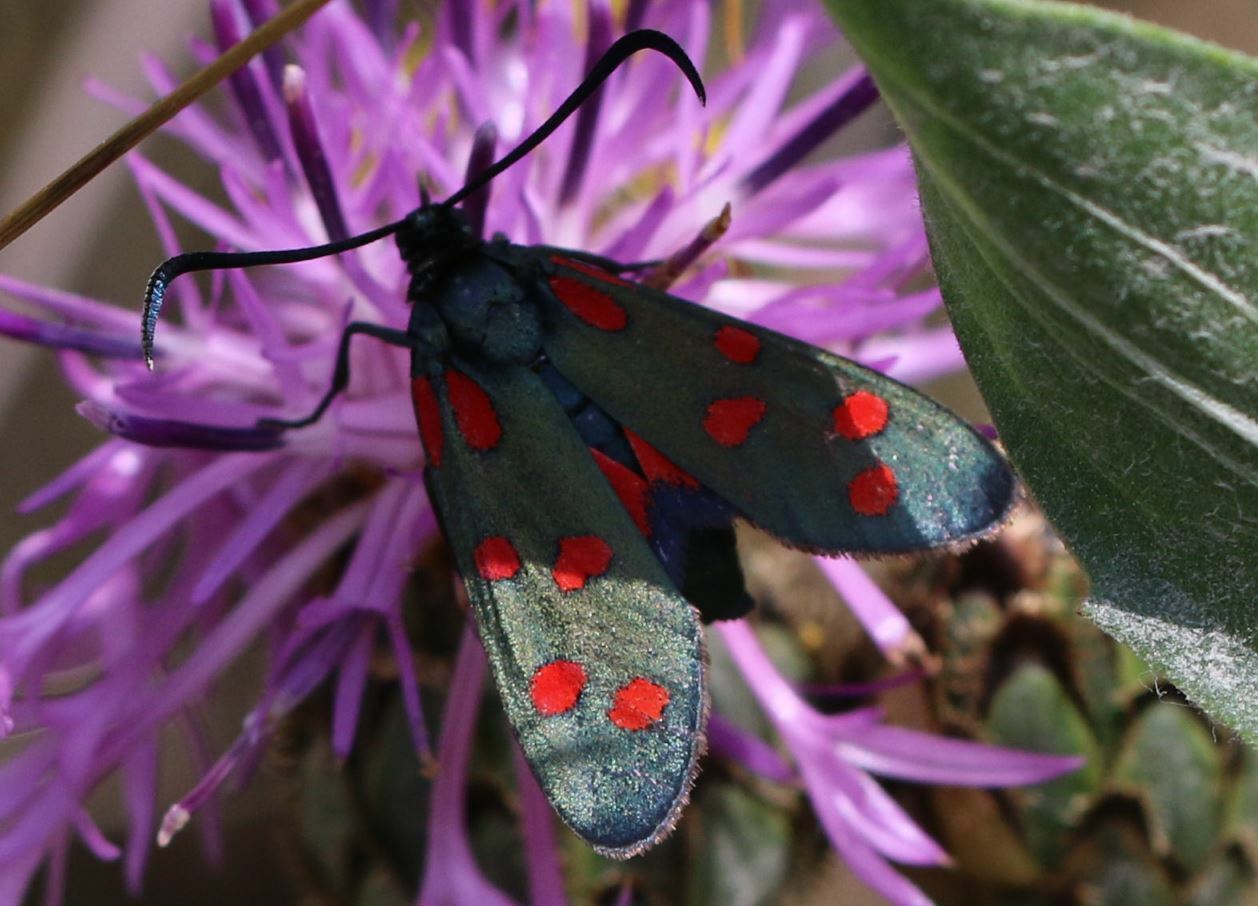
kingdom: Animalia
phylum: Arthropoda
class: Insecta
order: Lepidoptera
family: Zygaenidae
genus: Zygaena
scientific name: Zygaena transalpina
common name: Southern six spot burnet
